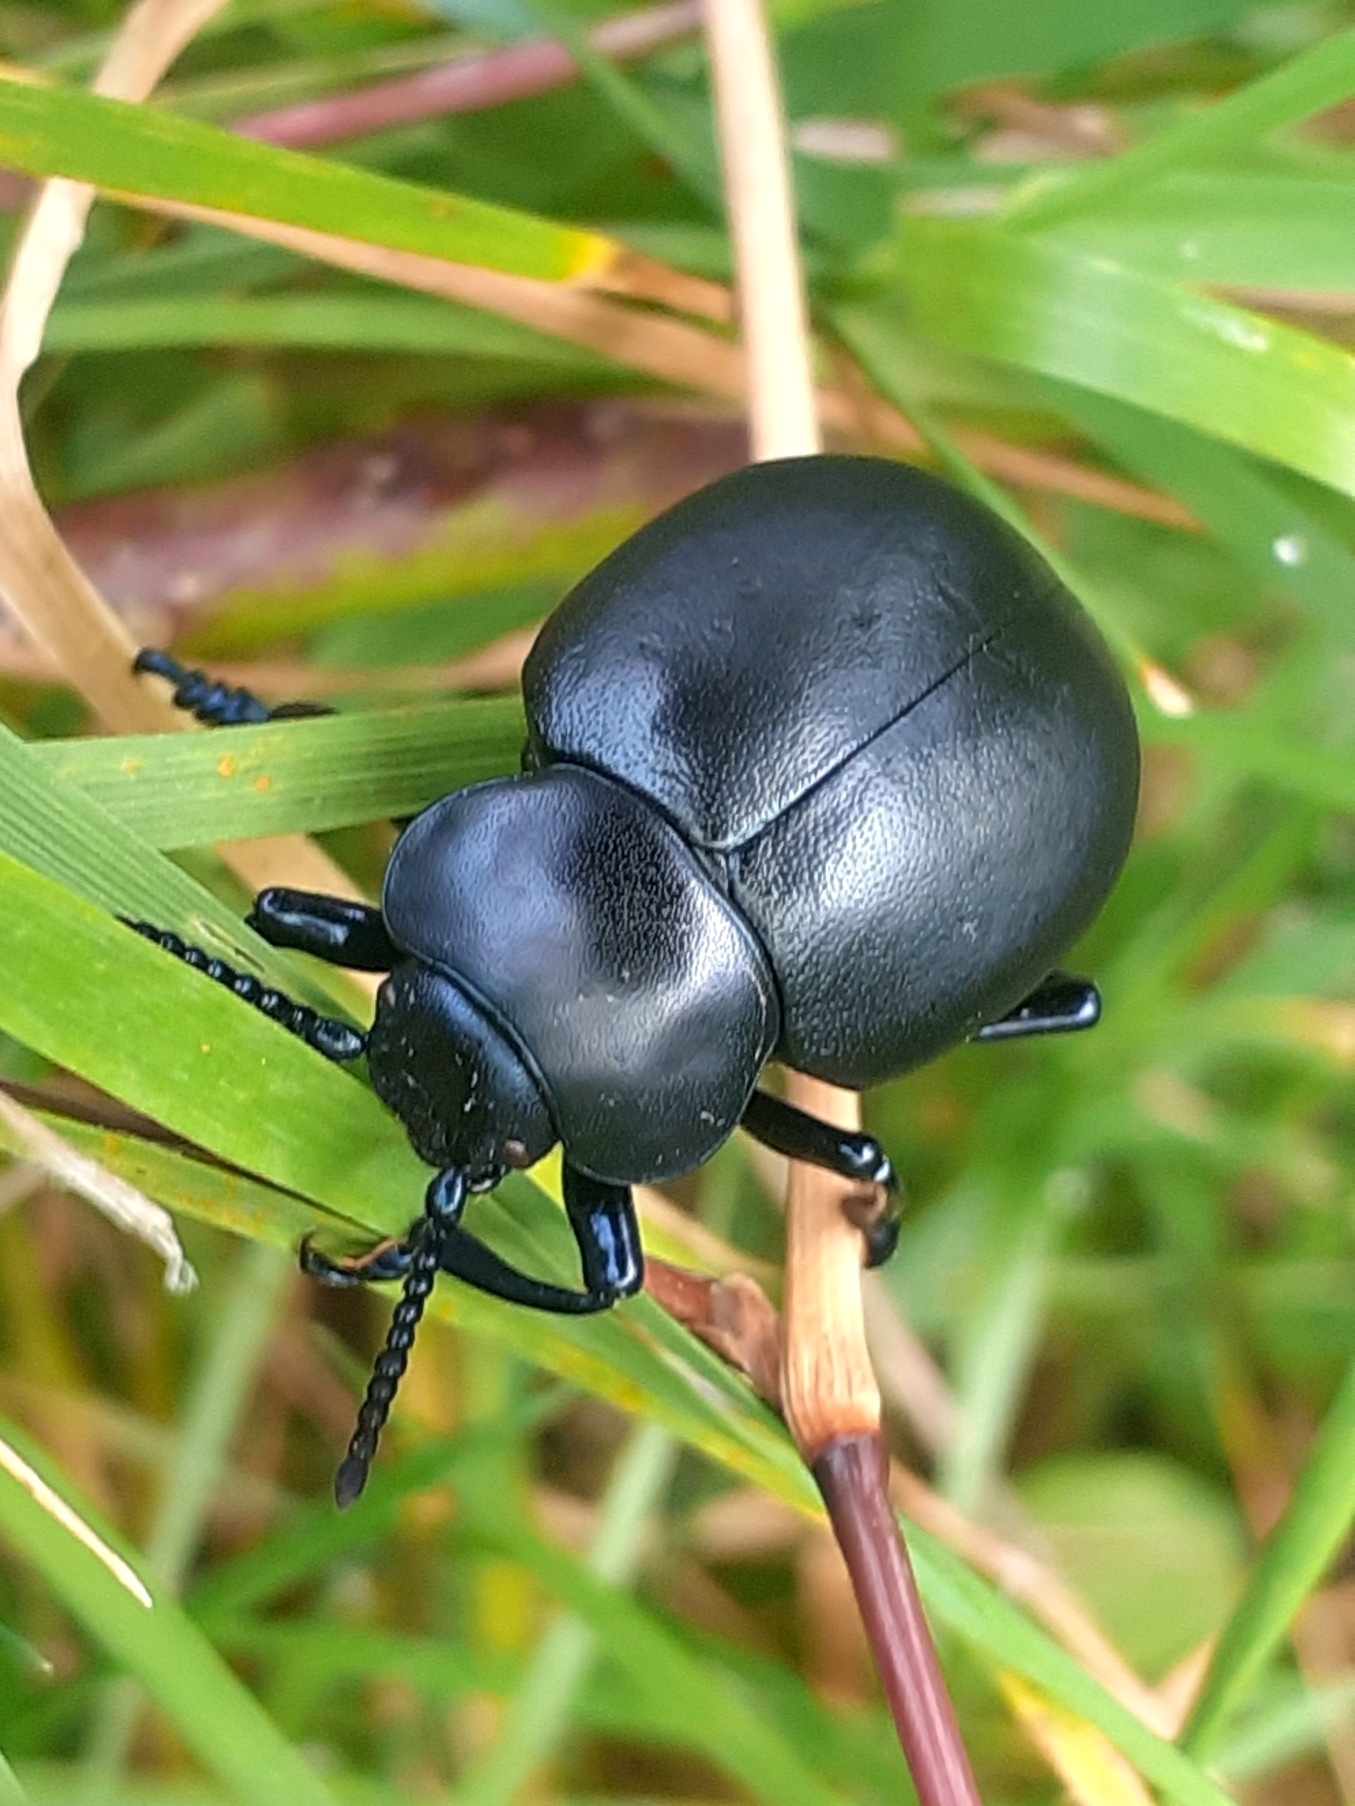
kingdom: Animalia
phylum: Arthropoda
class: Insecta
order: Coleoptera
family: Chrysomelidae
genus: Timarcha
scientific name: Timarcha tenebricosa
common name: Bloody-nosed beetle
